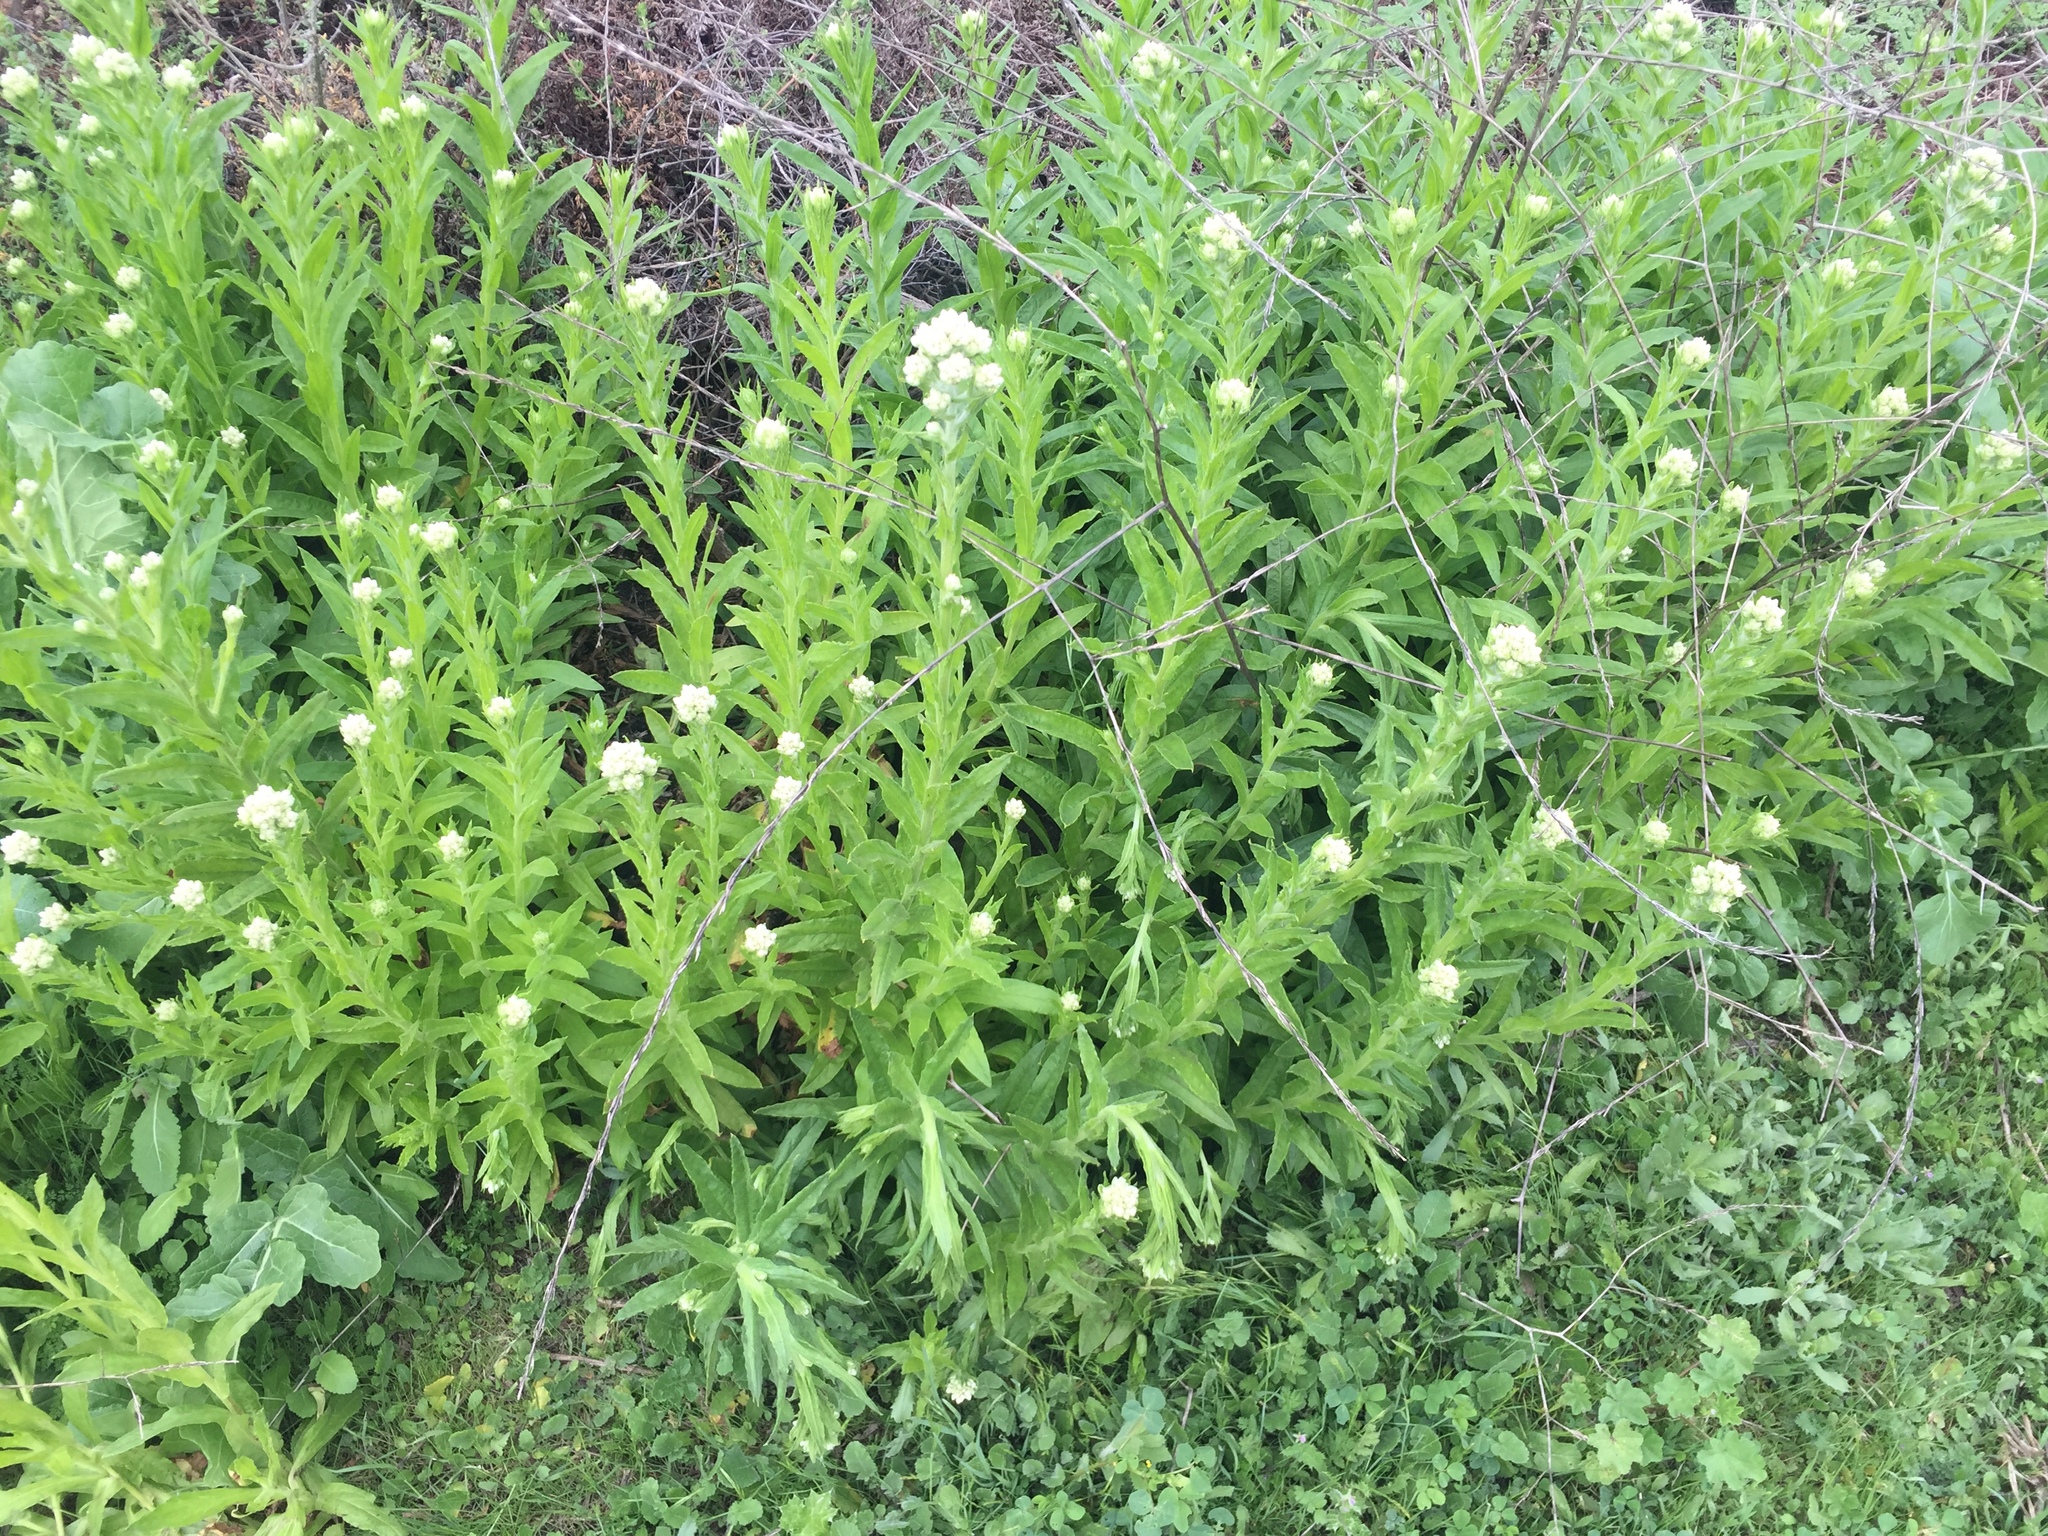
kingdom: Plantae
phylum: Tracheophyta
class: Magnoliopsida
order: Asterales
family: Asteraceae
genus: Pseudognaphalium
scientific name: Pseudognaphalium californicum
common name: California rabbit-tobacco
